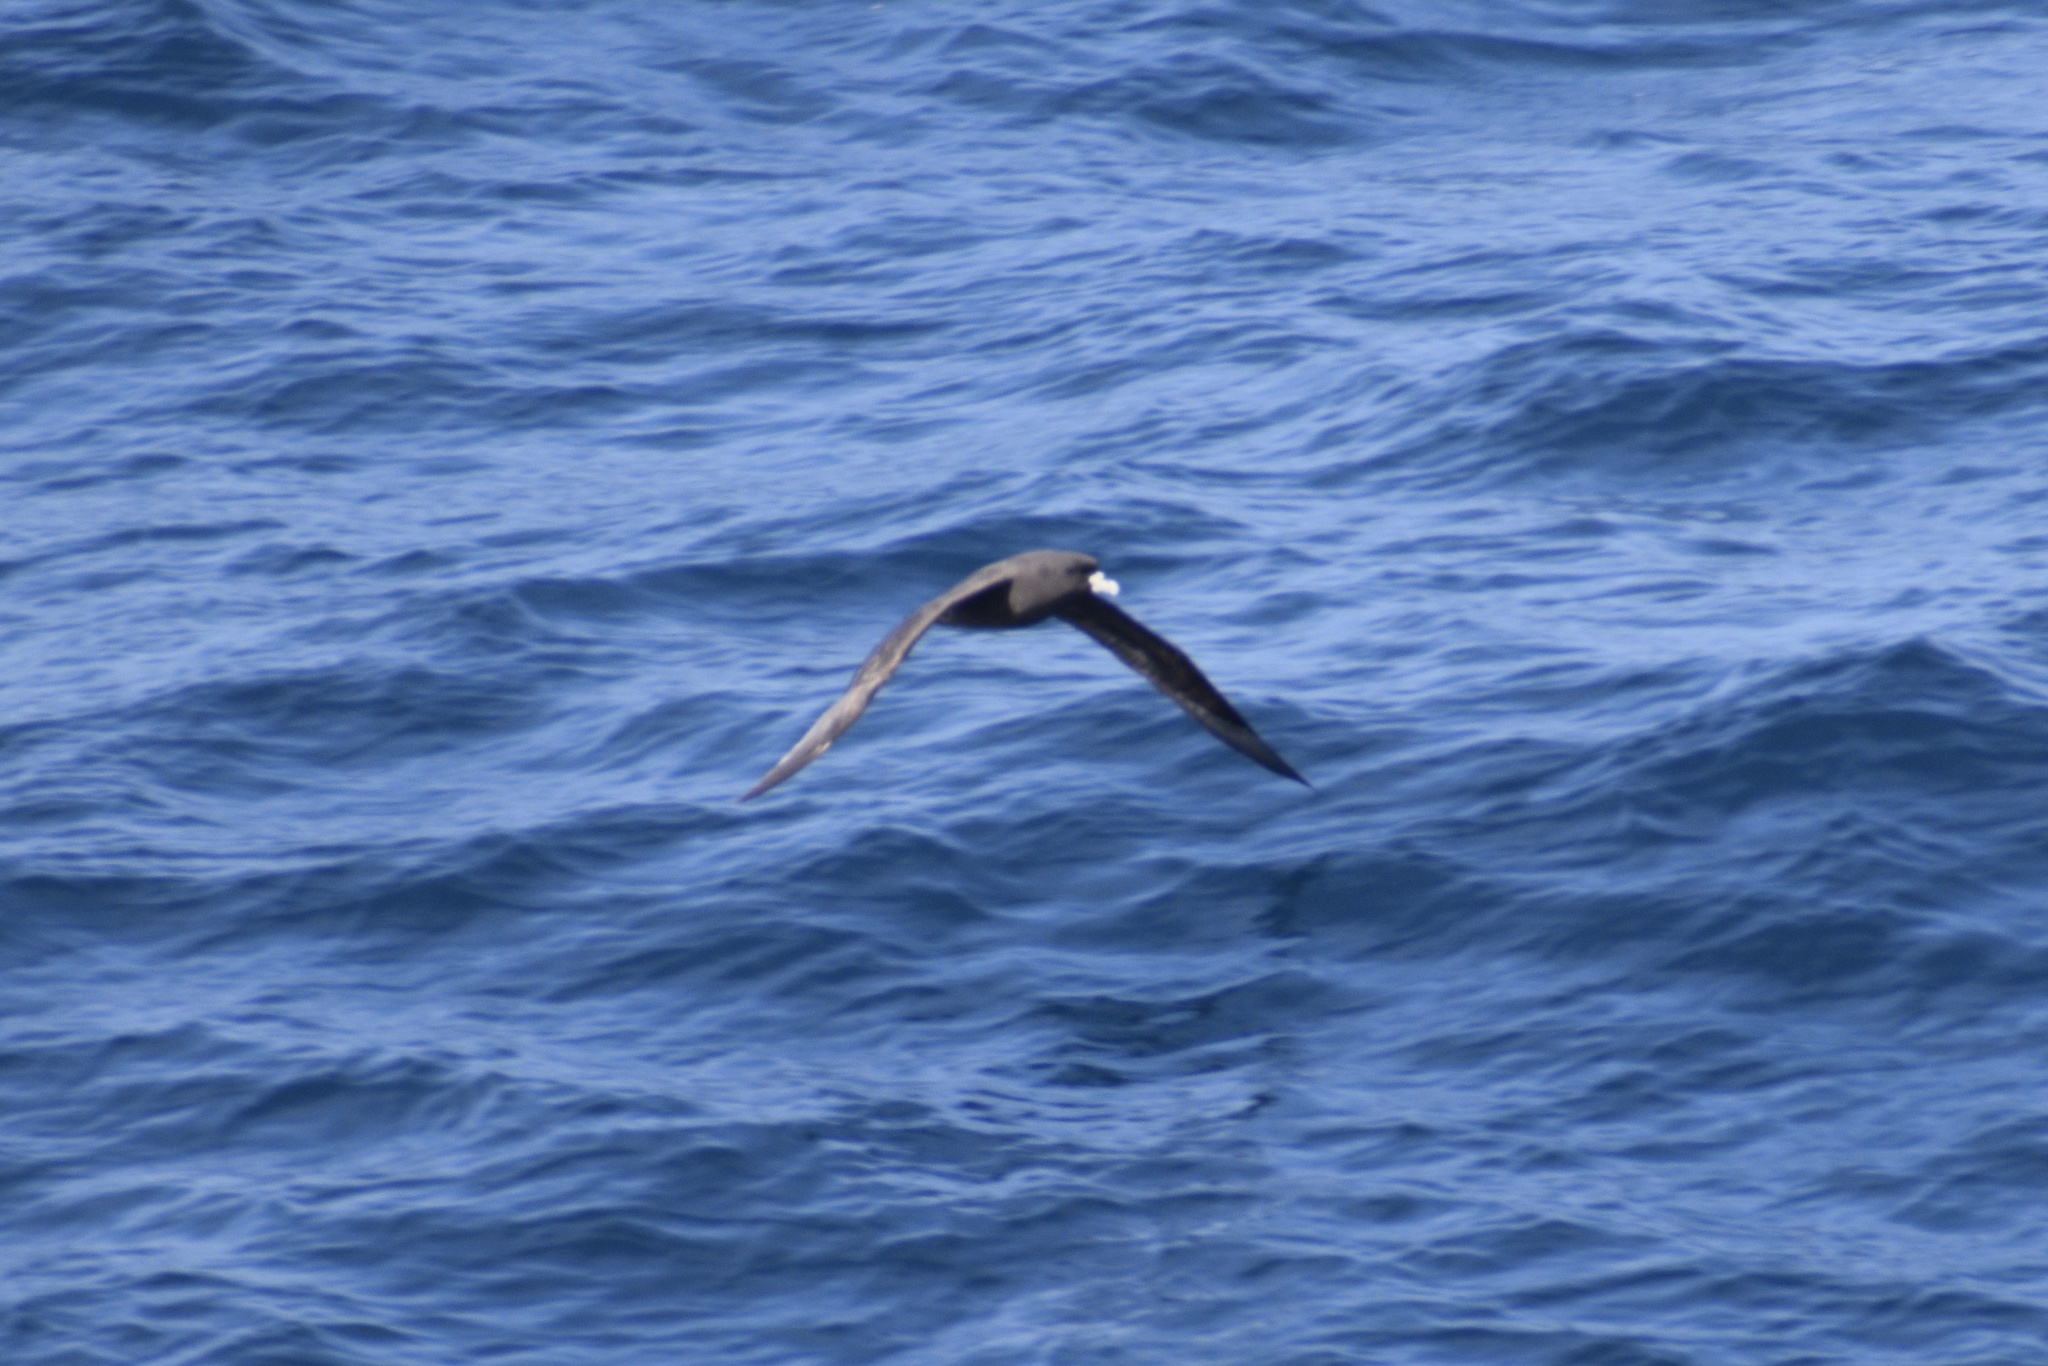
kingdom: Animalia
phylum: Chordata
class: Aves
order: Procellariiformes
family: Procellariidae
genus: Procellaria
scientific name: Procellaria aequinoctialis
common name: White-chinned petrel
